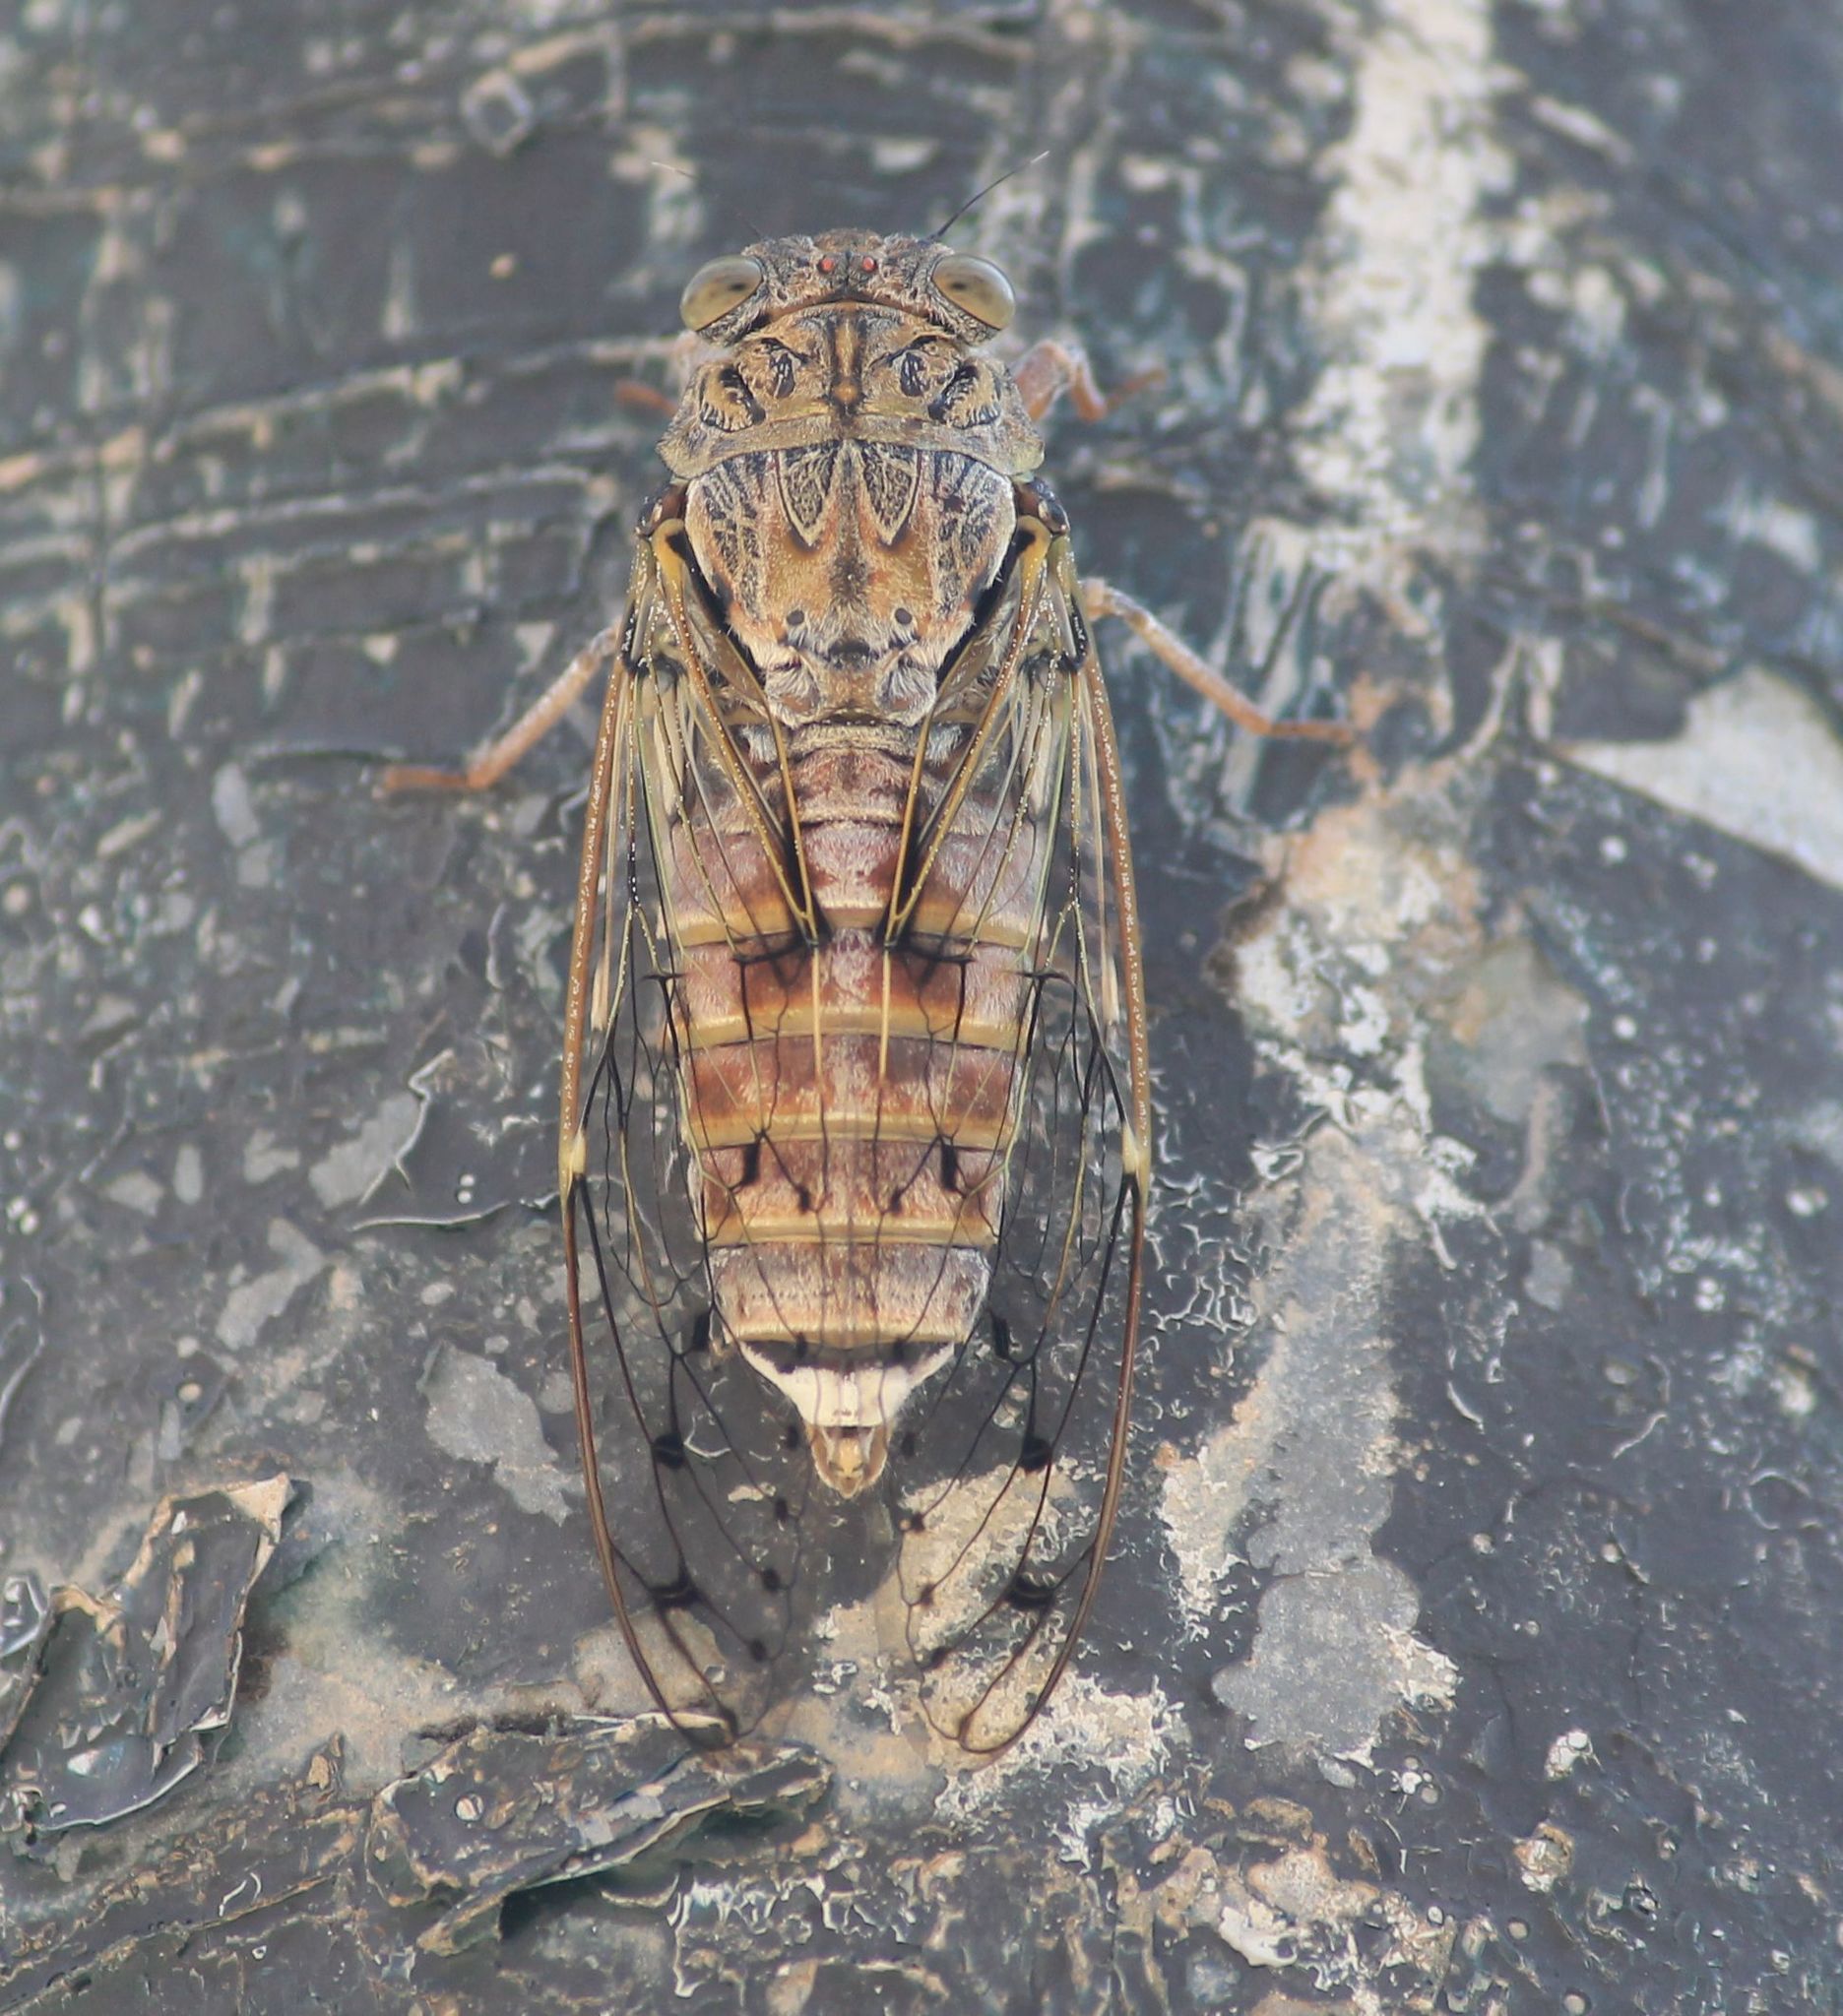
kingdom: Animalia
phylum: Arthropoda
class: Insecta
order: Hemiptera
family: Cicadidae
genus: Cicada
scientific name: Cicada orni
